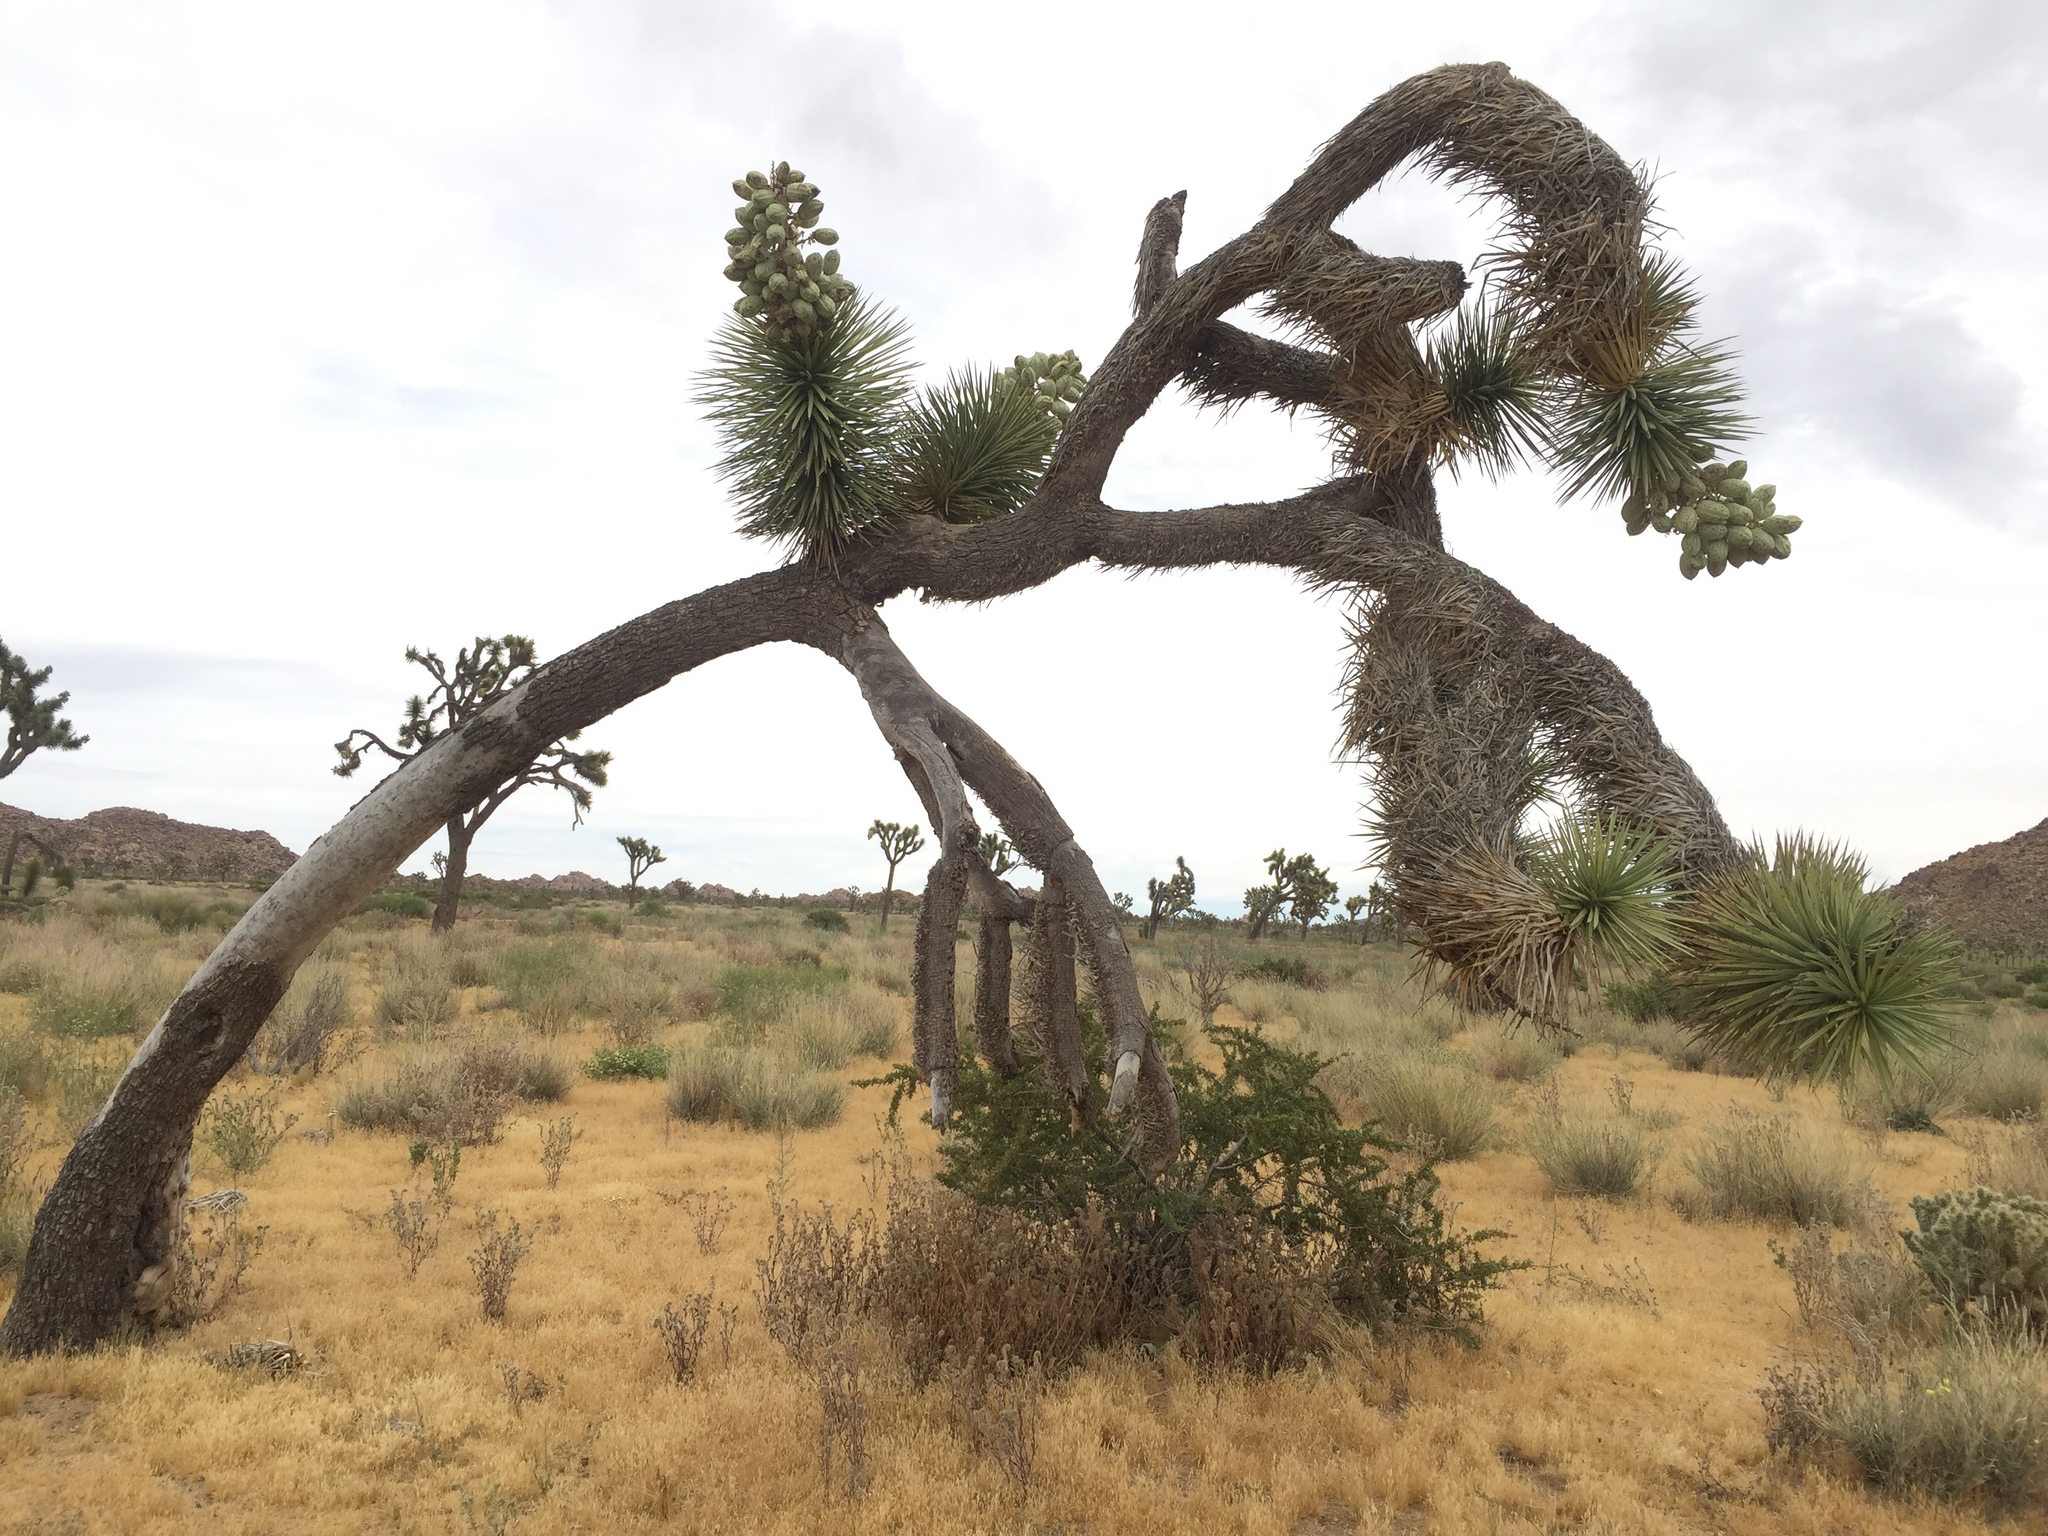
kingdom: Plantae
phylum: Tracheophyta
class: Liliopsida
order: Asparagales
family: Asparagaceae
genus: Yucca
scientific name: Yucca brevifolia
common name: Joshua tree
